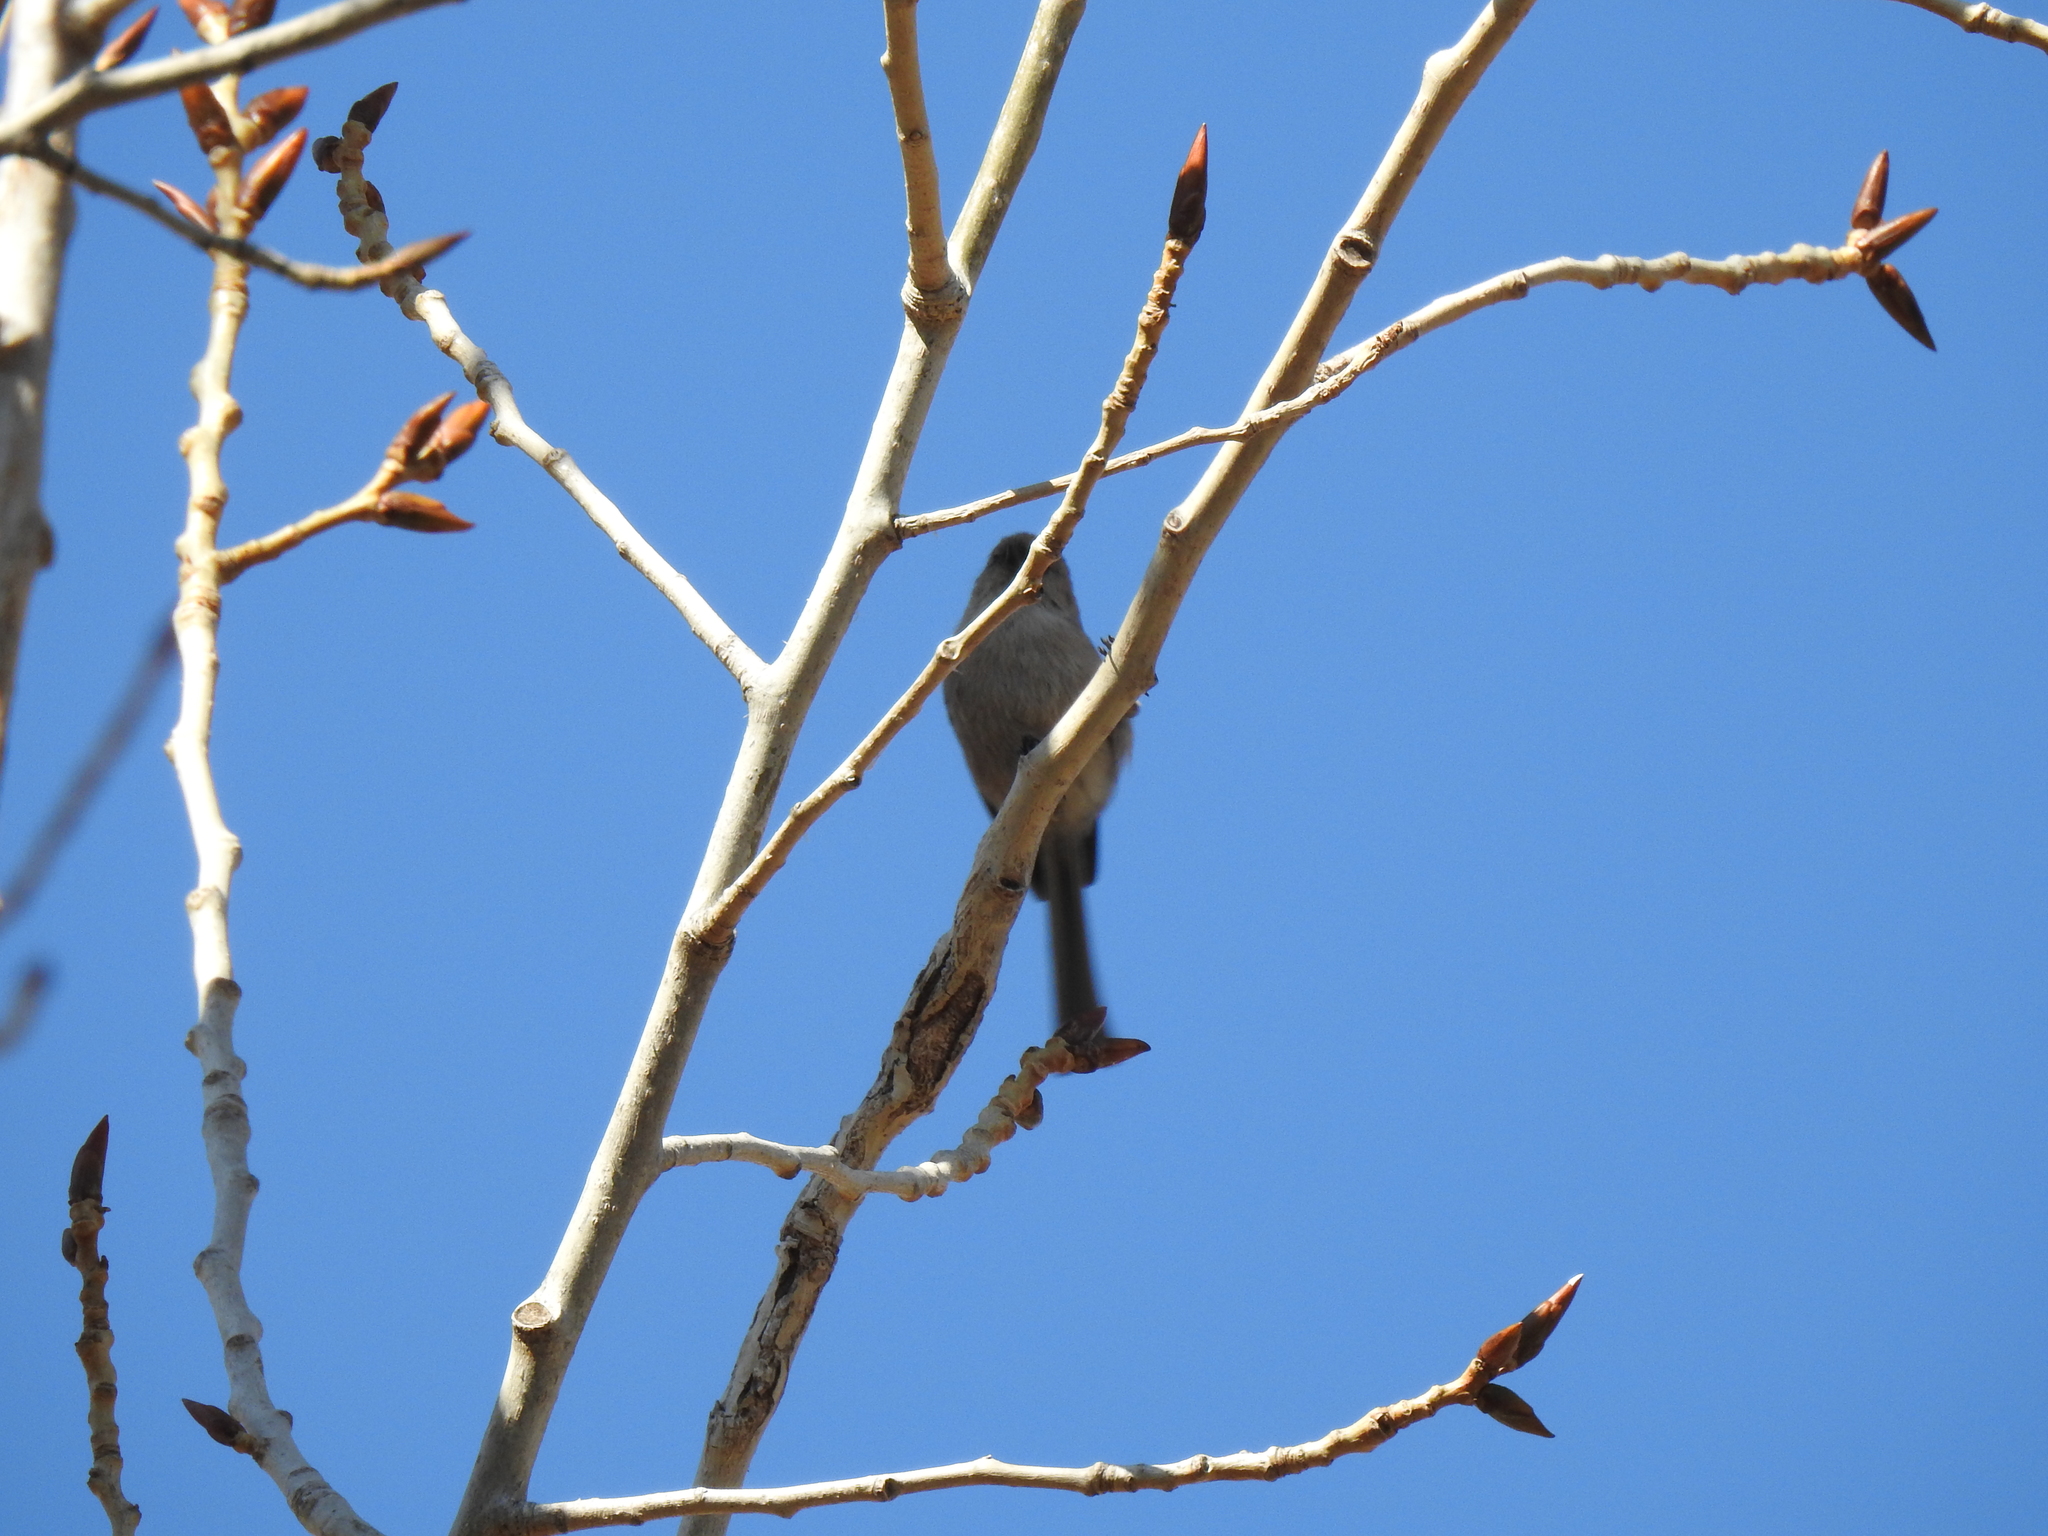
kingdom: Animalia
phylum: Chordata
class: Aves
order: Passeriformes
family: Aegithalidae
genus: Psaltriparus
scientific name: Psaltriparus minimus
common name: American bushtit
